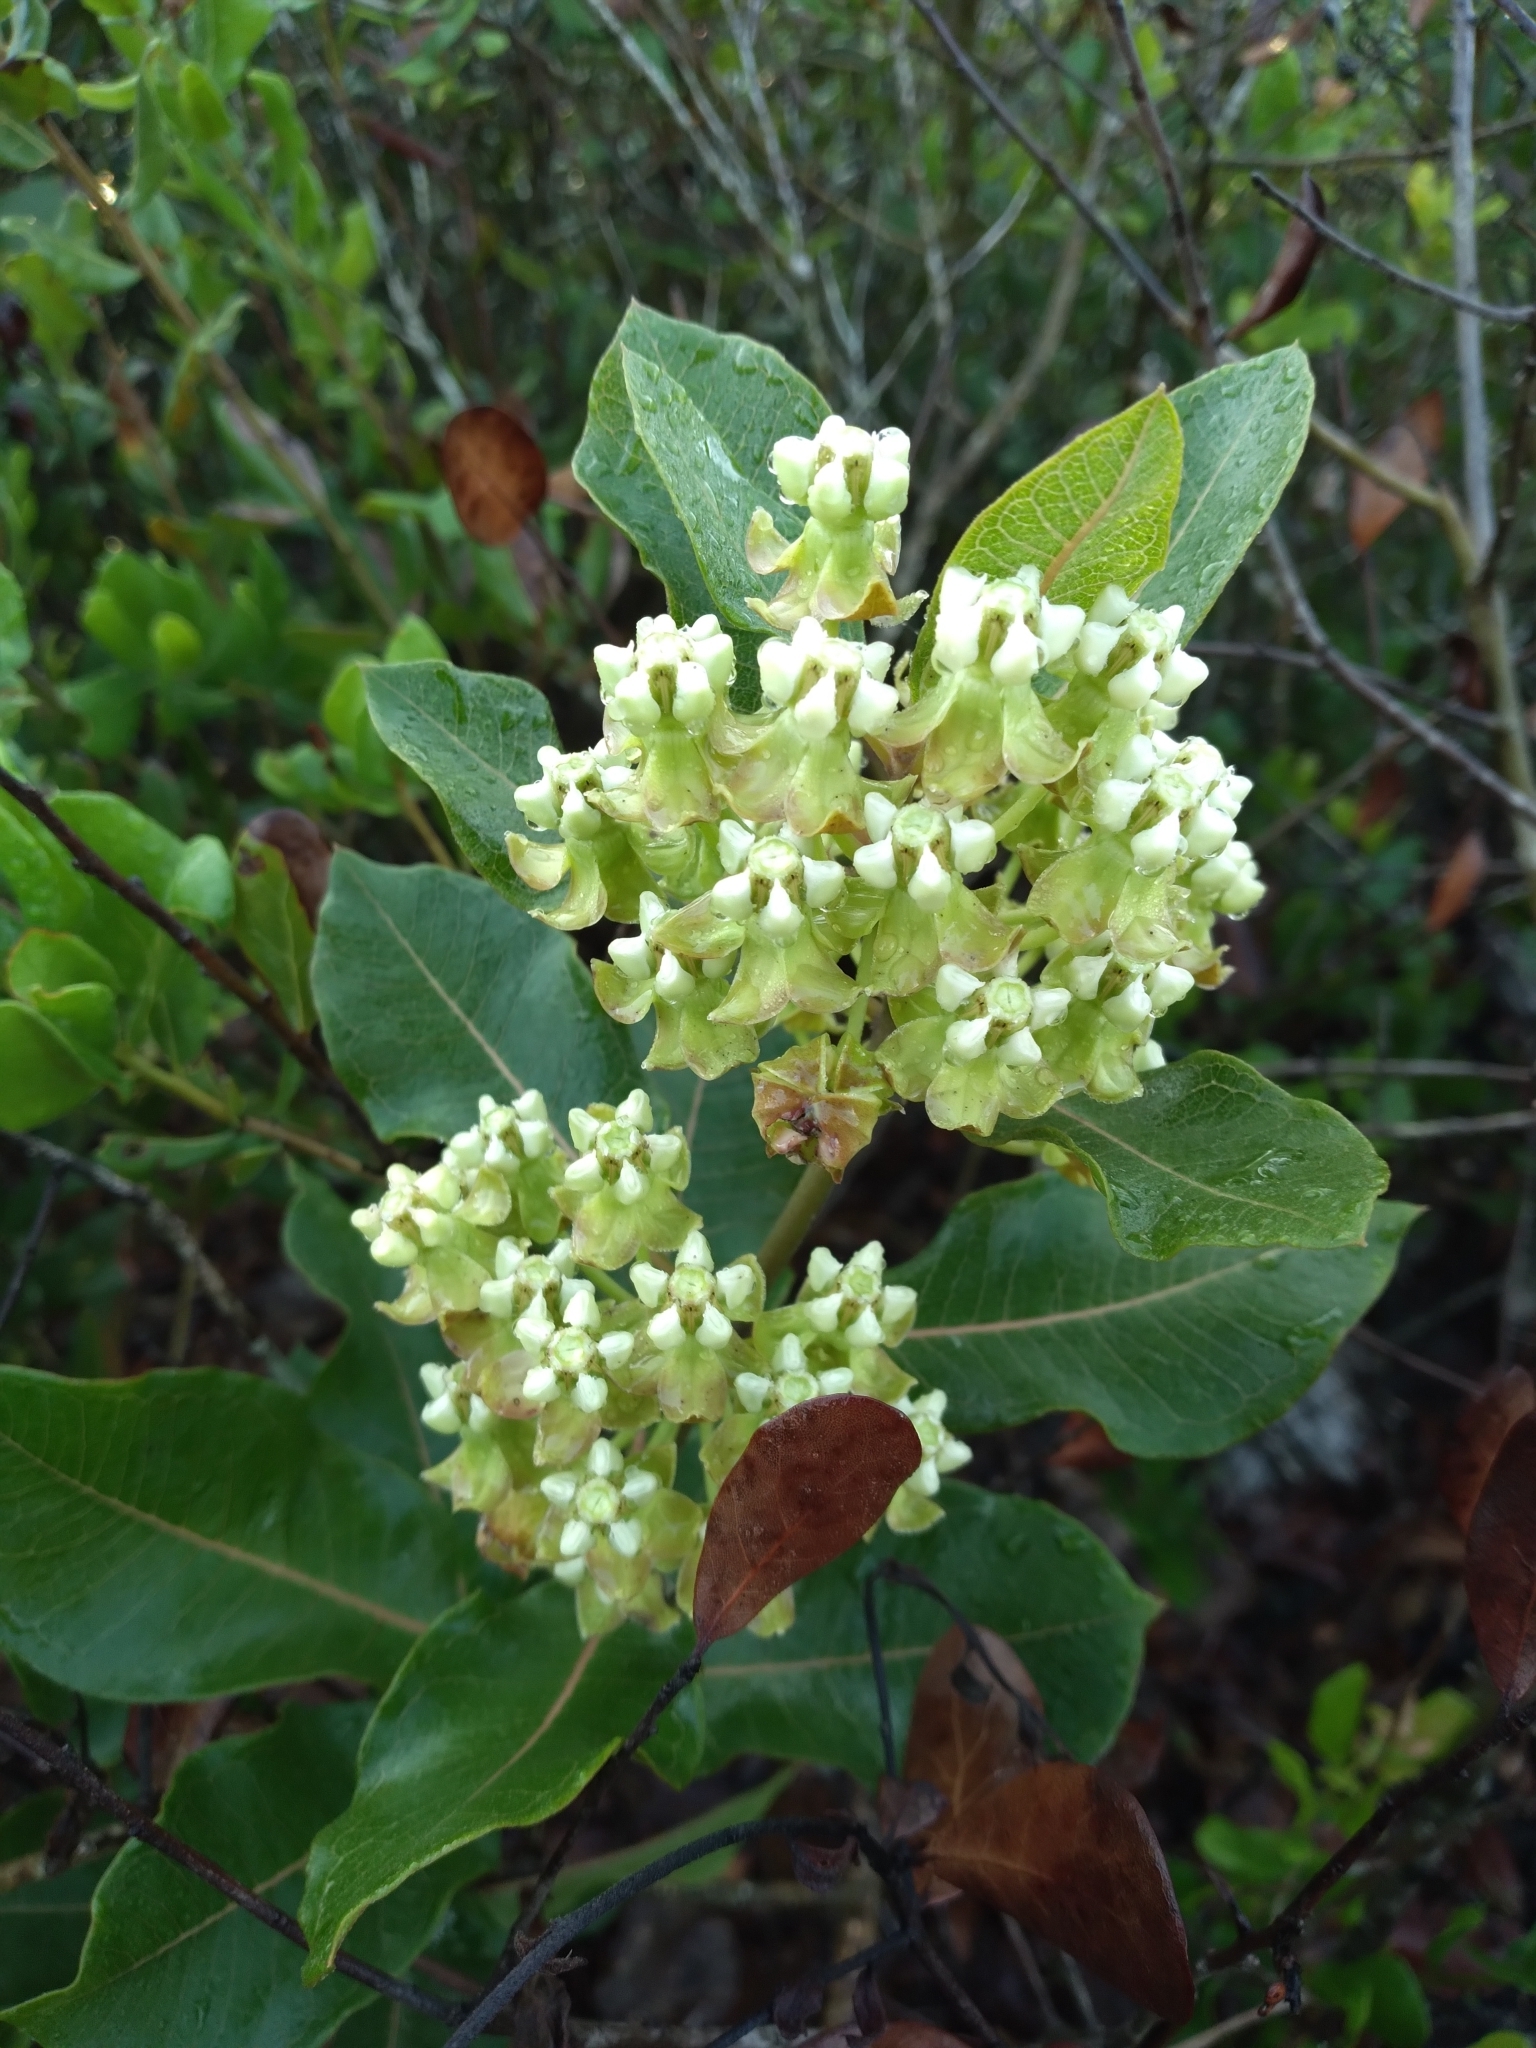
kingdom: Plantae
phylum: Tracheophyta
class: Magnoliopsida
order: Gentianales
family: Apocynaceae
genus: Asclepias
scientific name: Asclepias tomentosa
